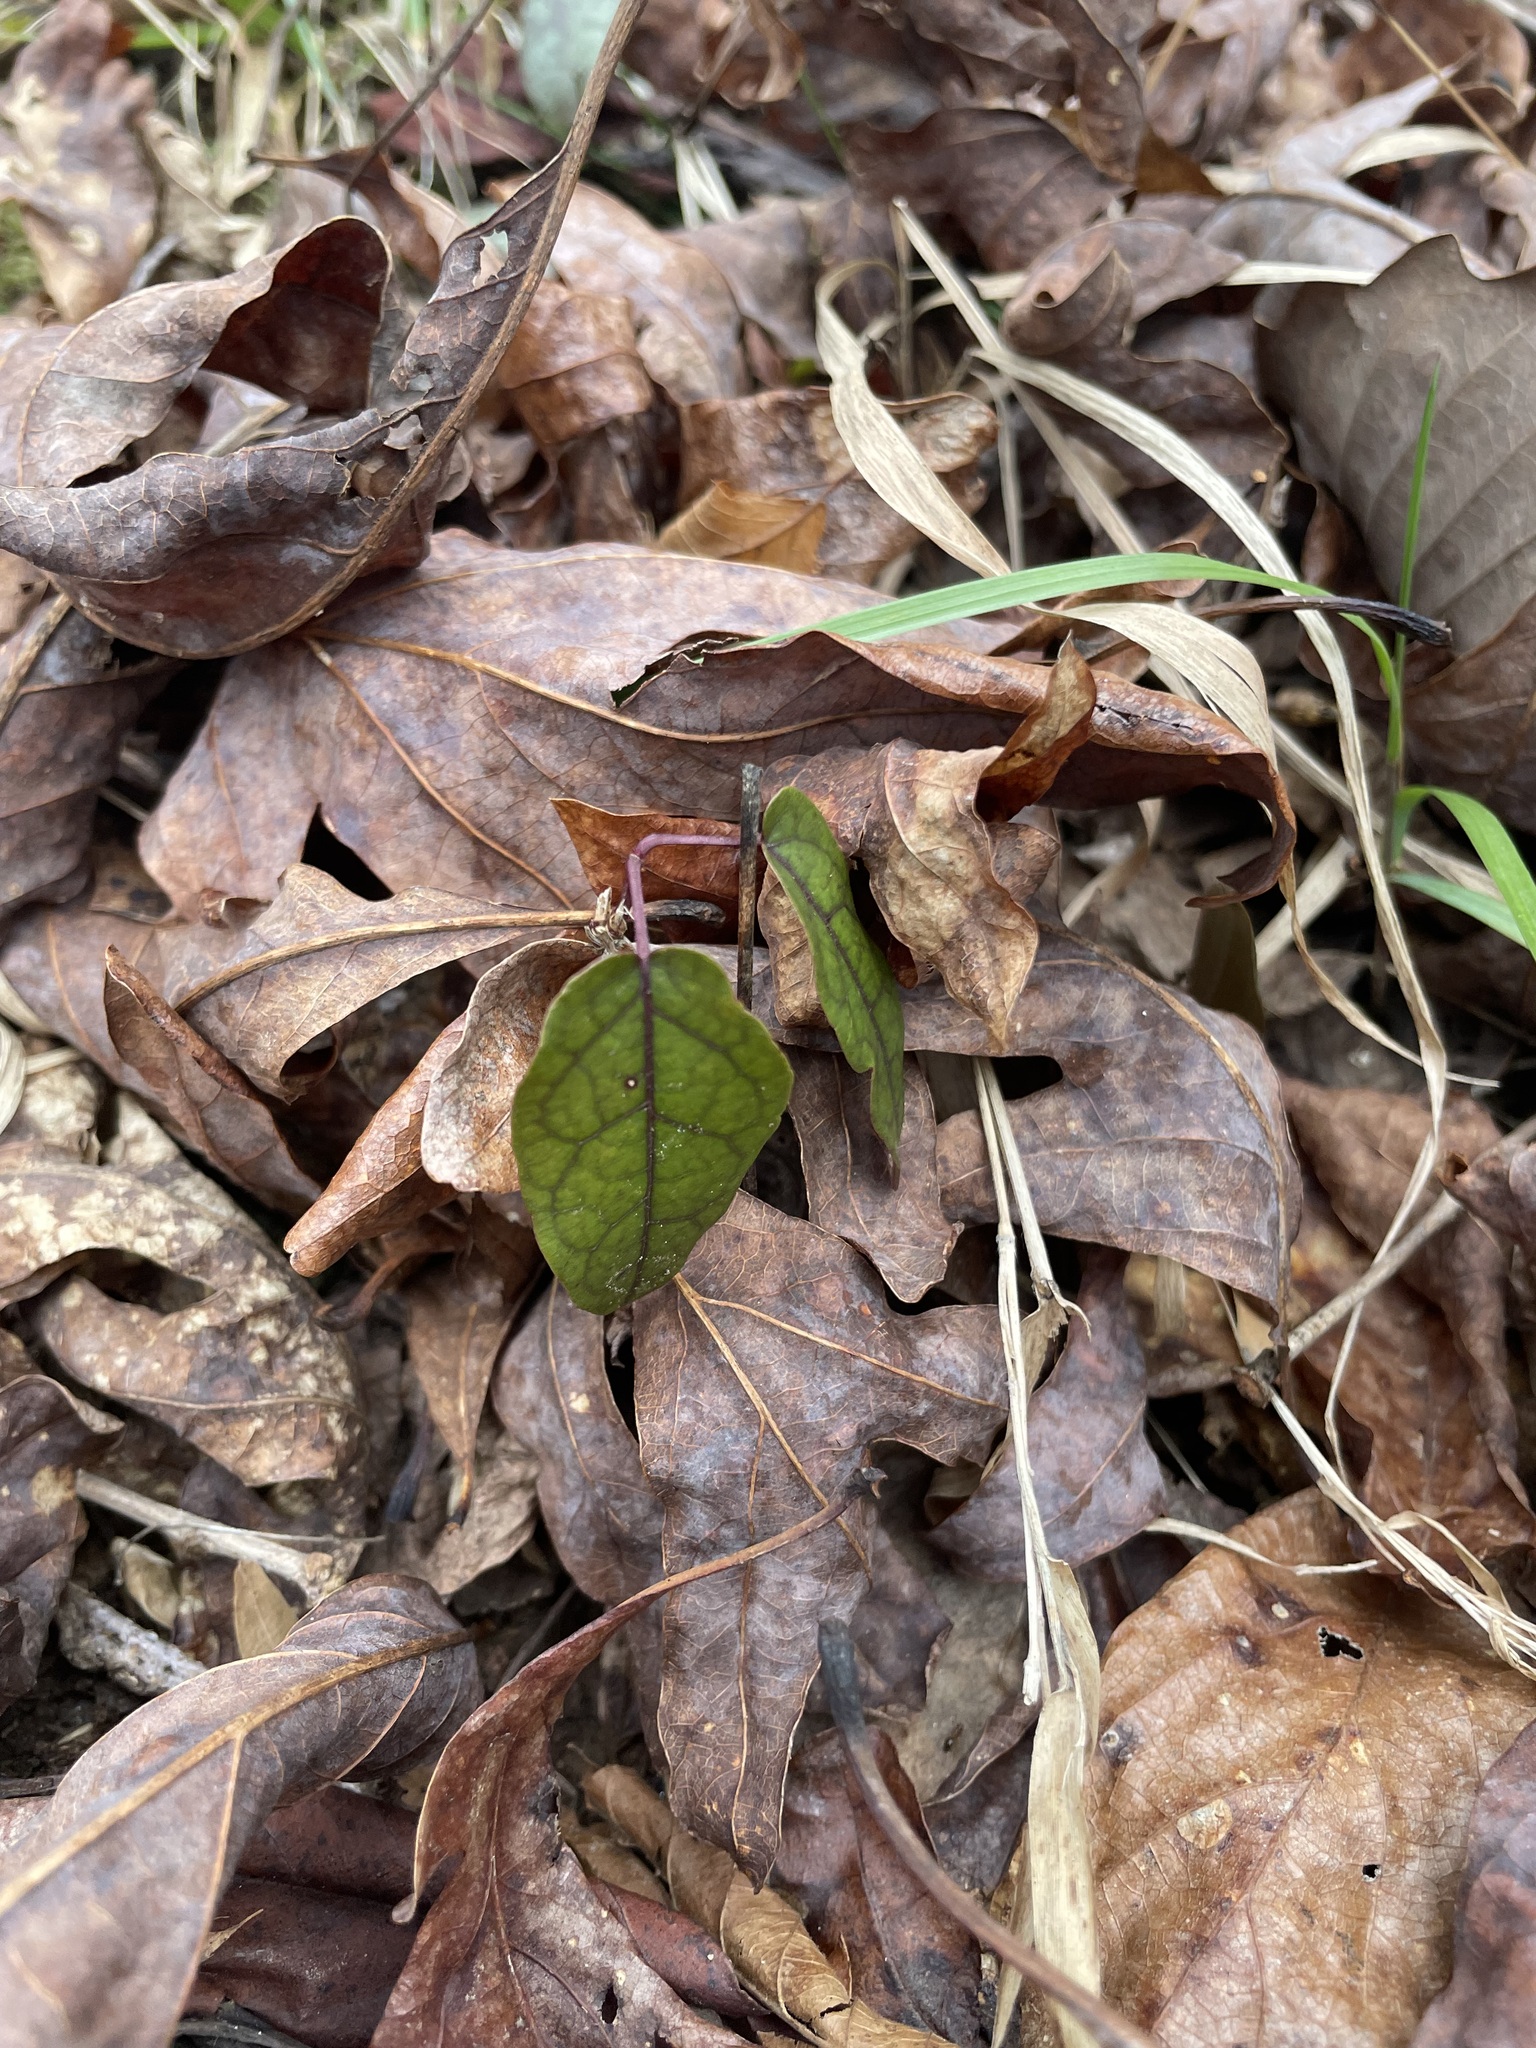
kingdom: Plantae
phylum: Tracheophyta
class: Magnoliopsida
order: Lamiales
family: Bignoniaceae
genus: Bignonia
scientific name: Bignonia capreolata
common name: Crossvine
